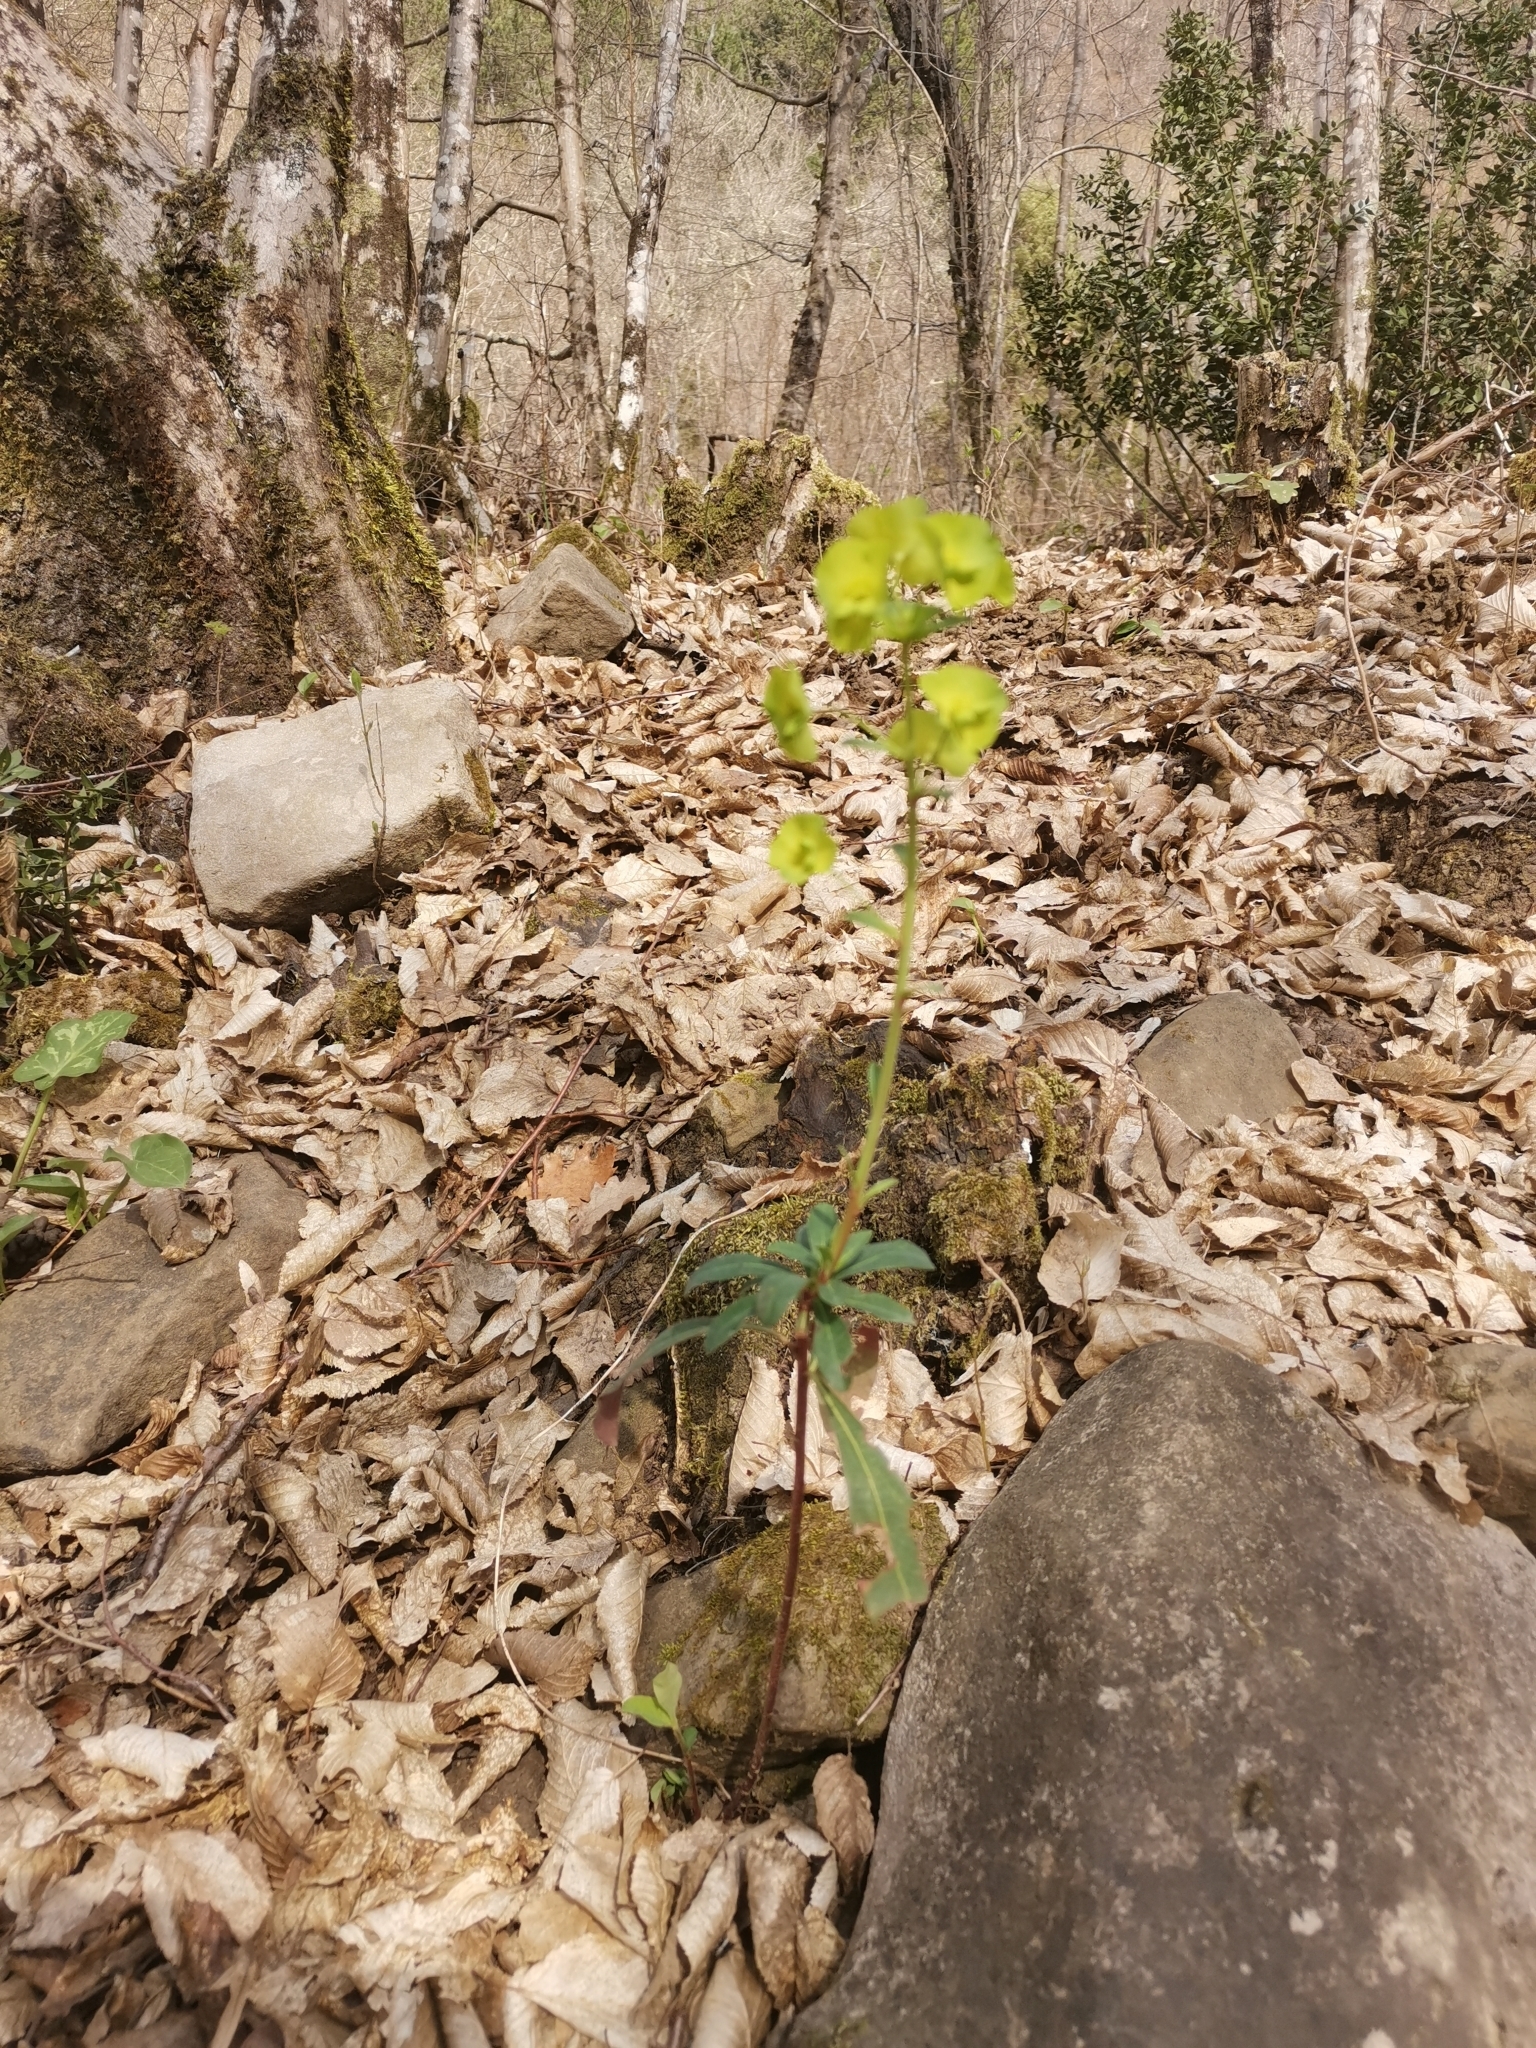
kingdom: Plantae
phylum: Tracheophyta
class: Magnoliopsida
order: Malpighiales
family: Euphorbiaceae
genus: Euphorbia
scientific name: Euphorbia amygdaloides
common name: Wood spurge
